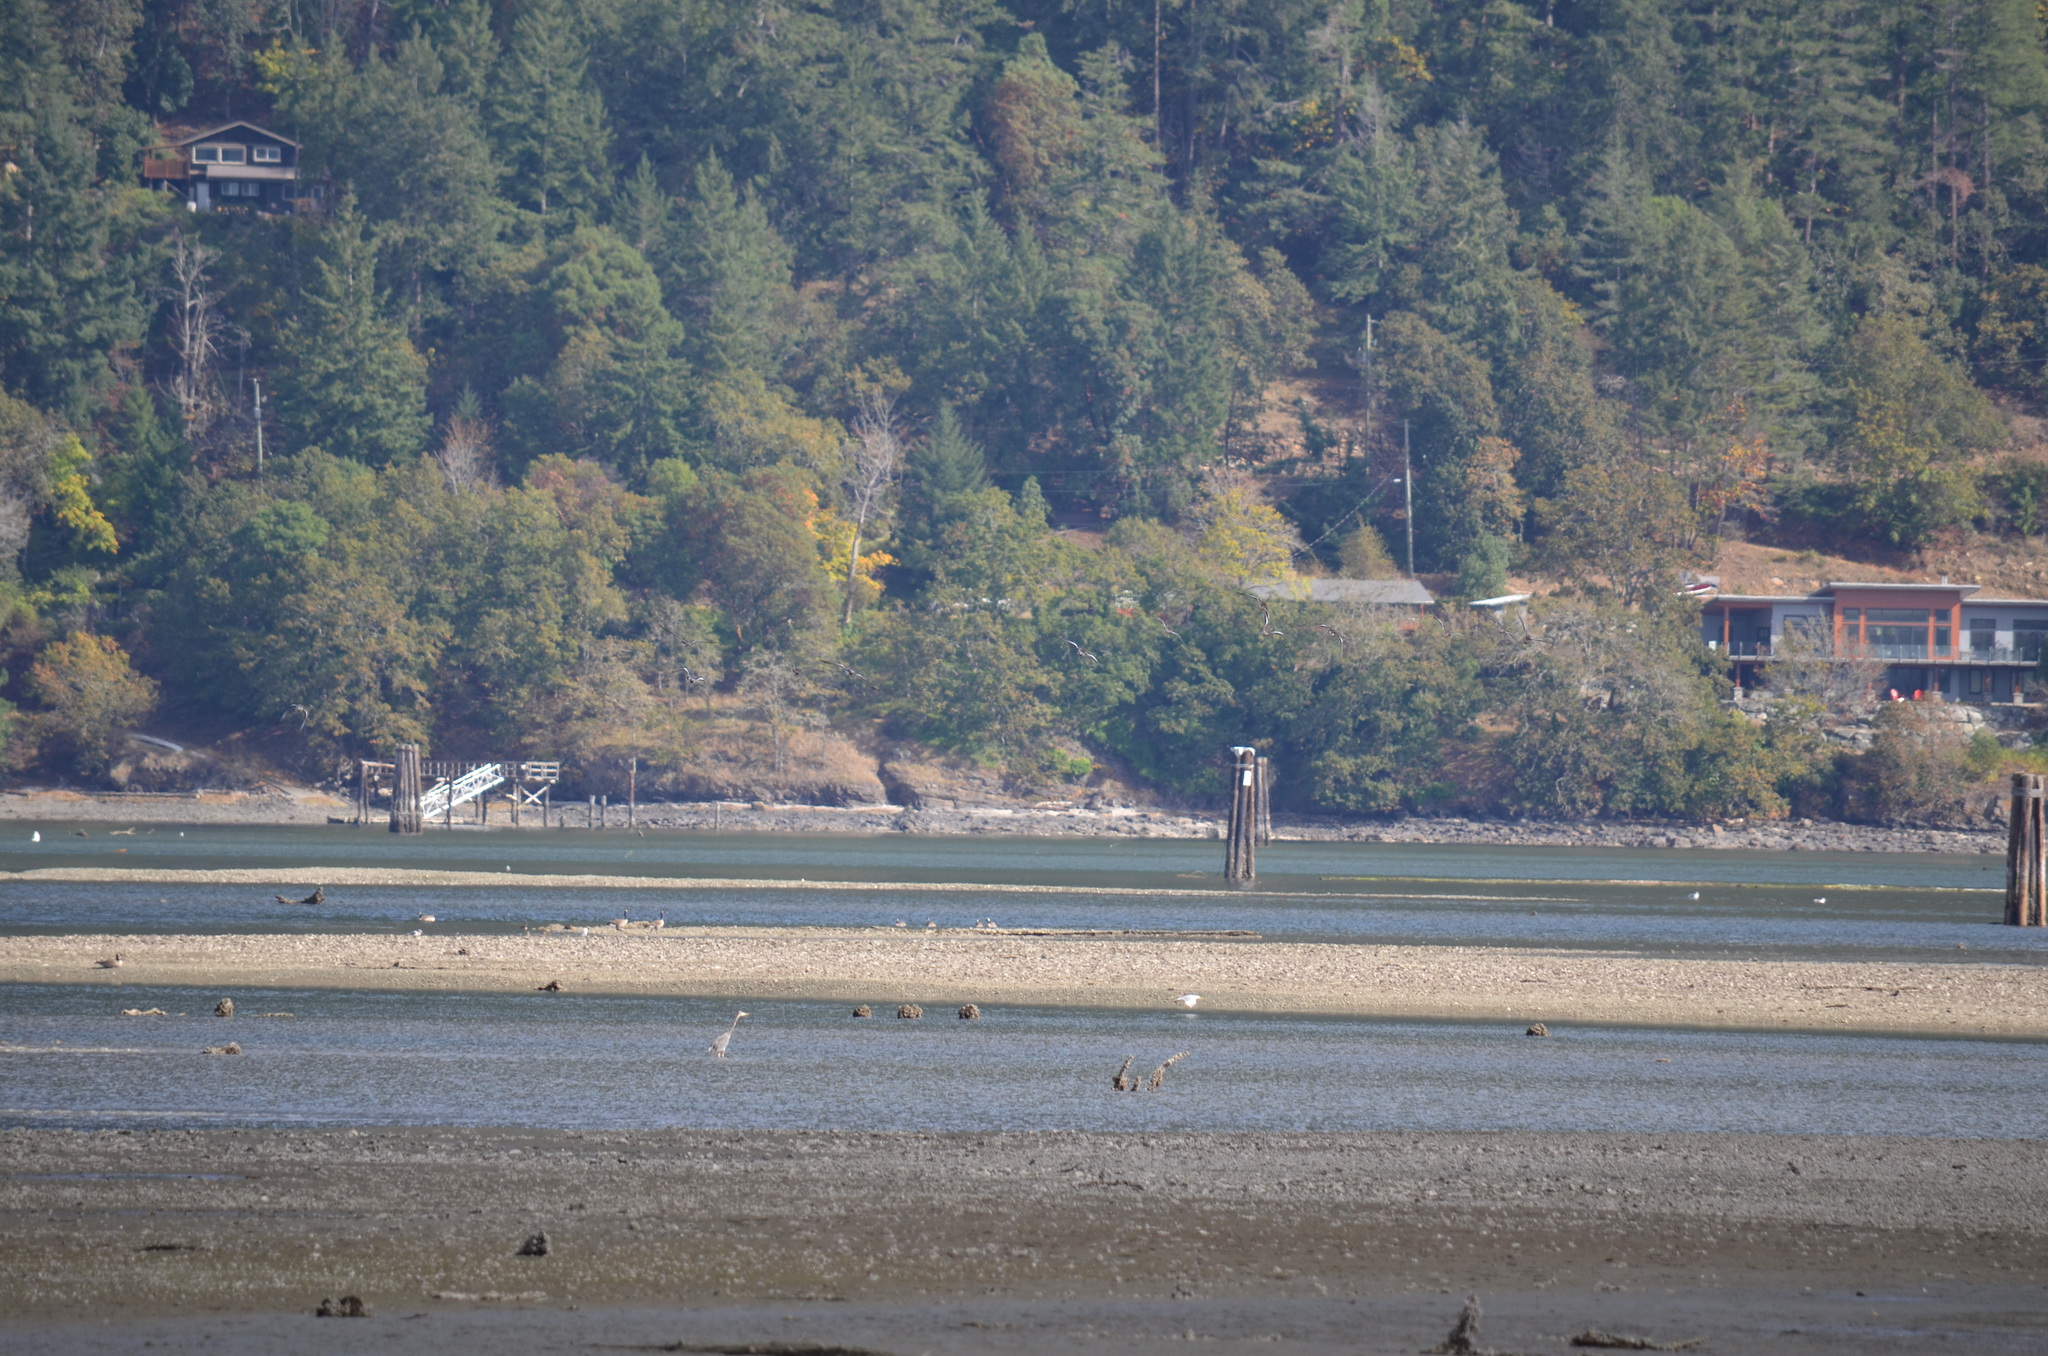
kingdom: Animalia
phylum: Chordata
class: Aves
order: Anseriformes
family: Anatidae
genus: Branta
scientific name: Branta canadensis
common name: Canada goose
